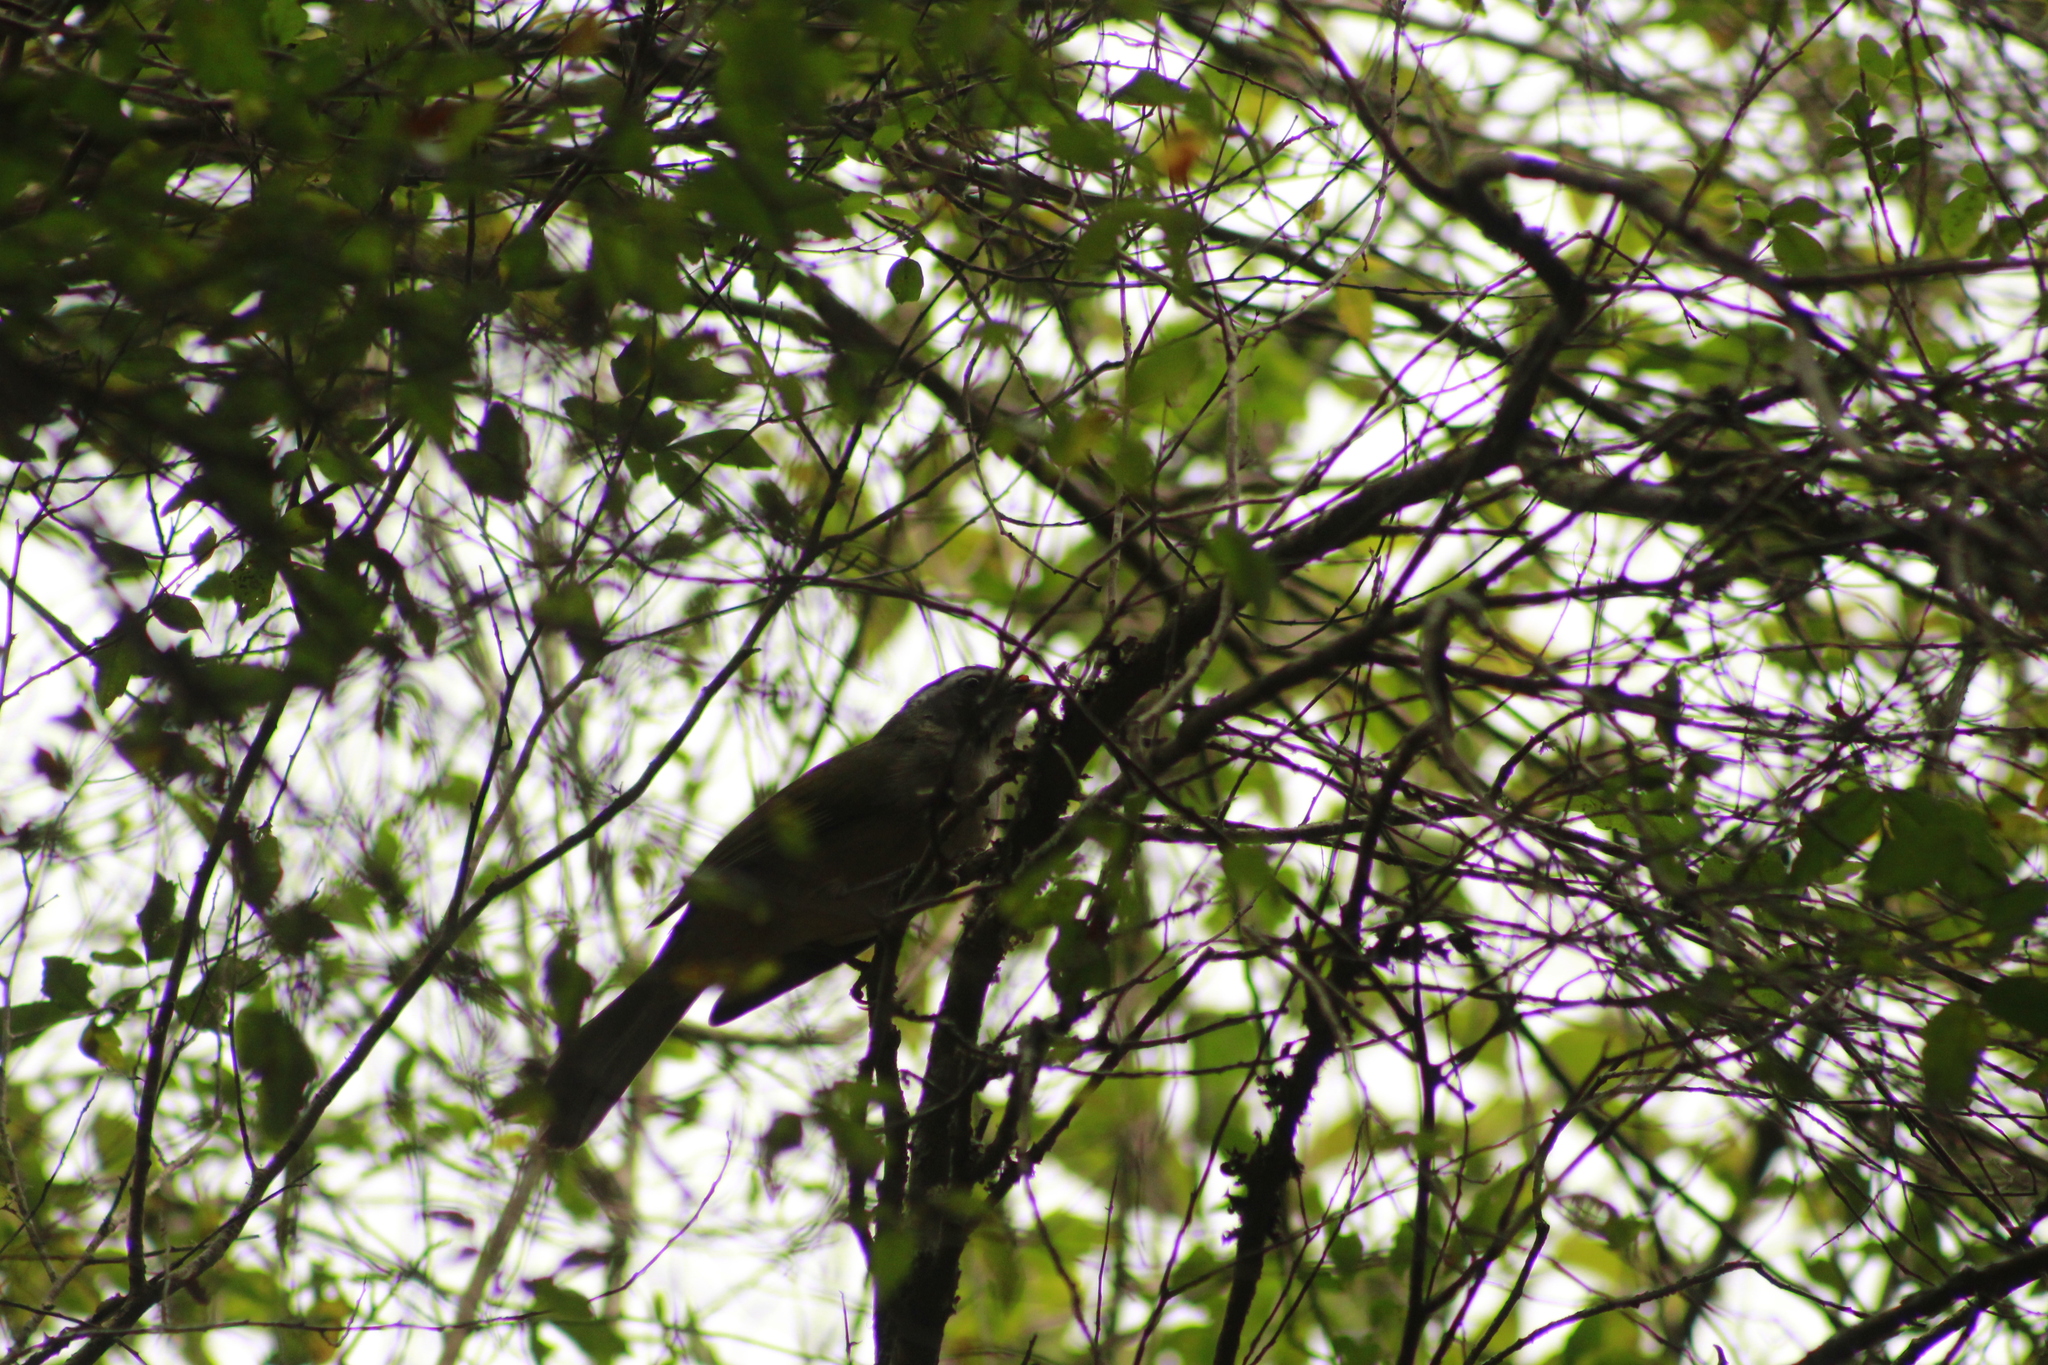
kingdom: Animalia
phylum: Chordata
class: Aves
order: Passeriformes
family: Thraupidae
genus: Saltator
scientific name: Saltator similis
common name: Green-winged saltator
